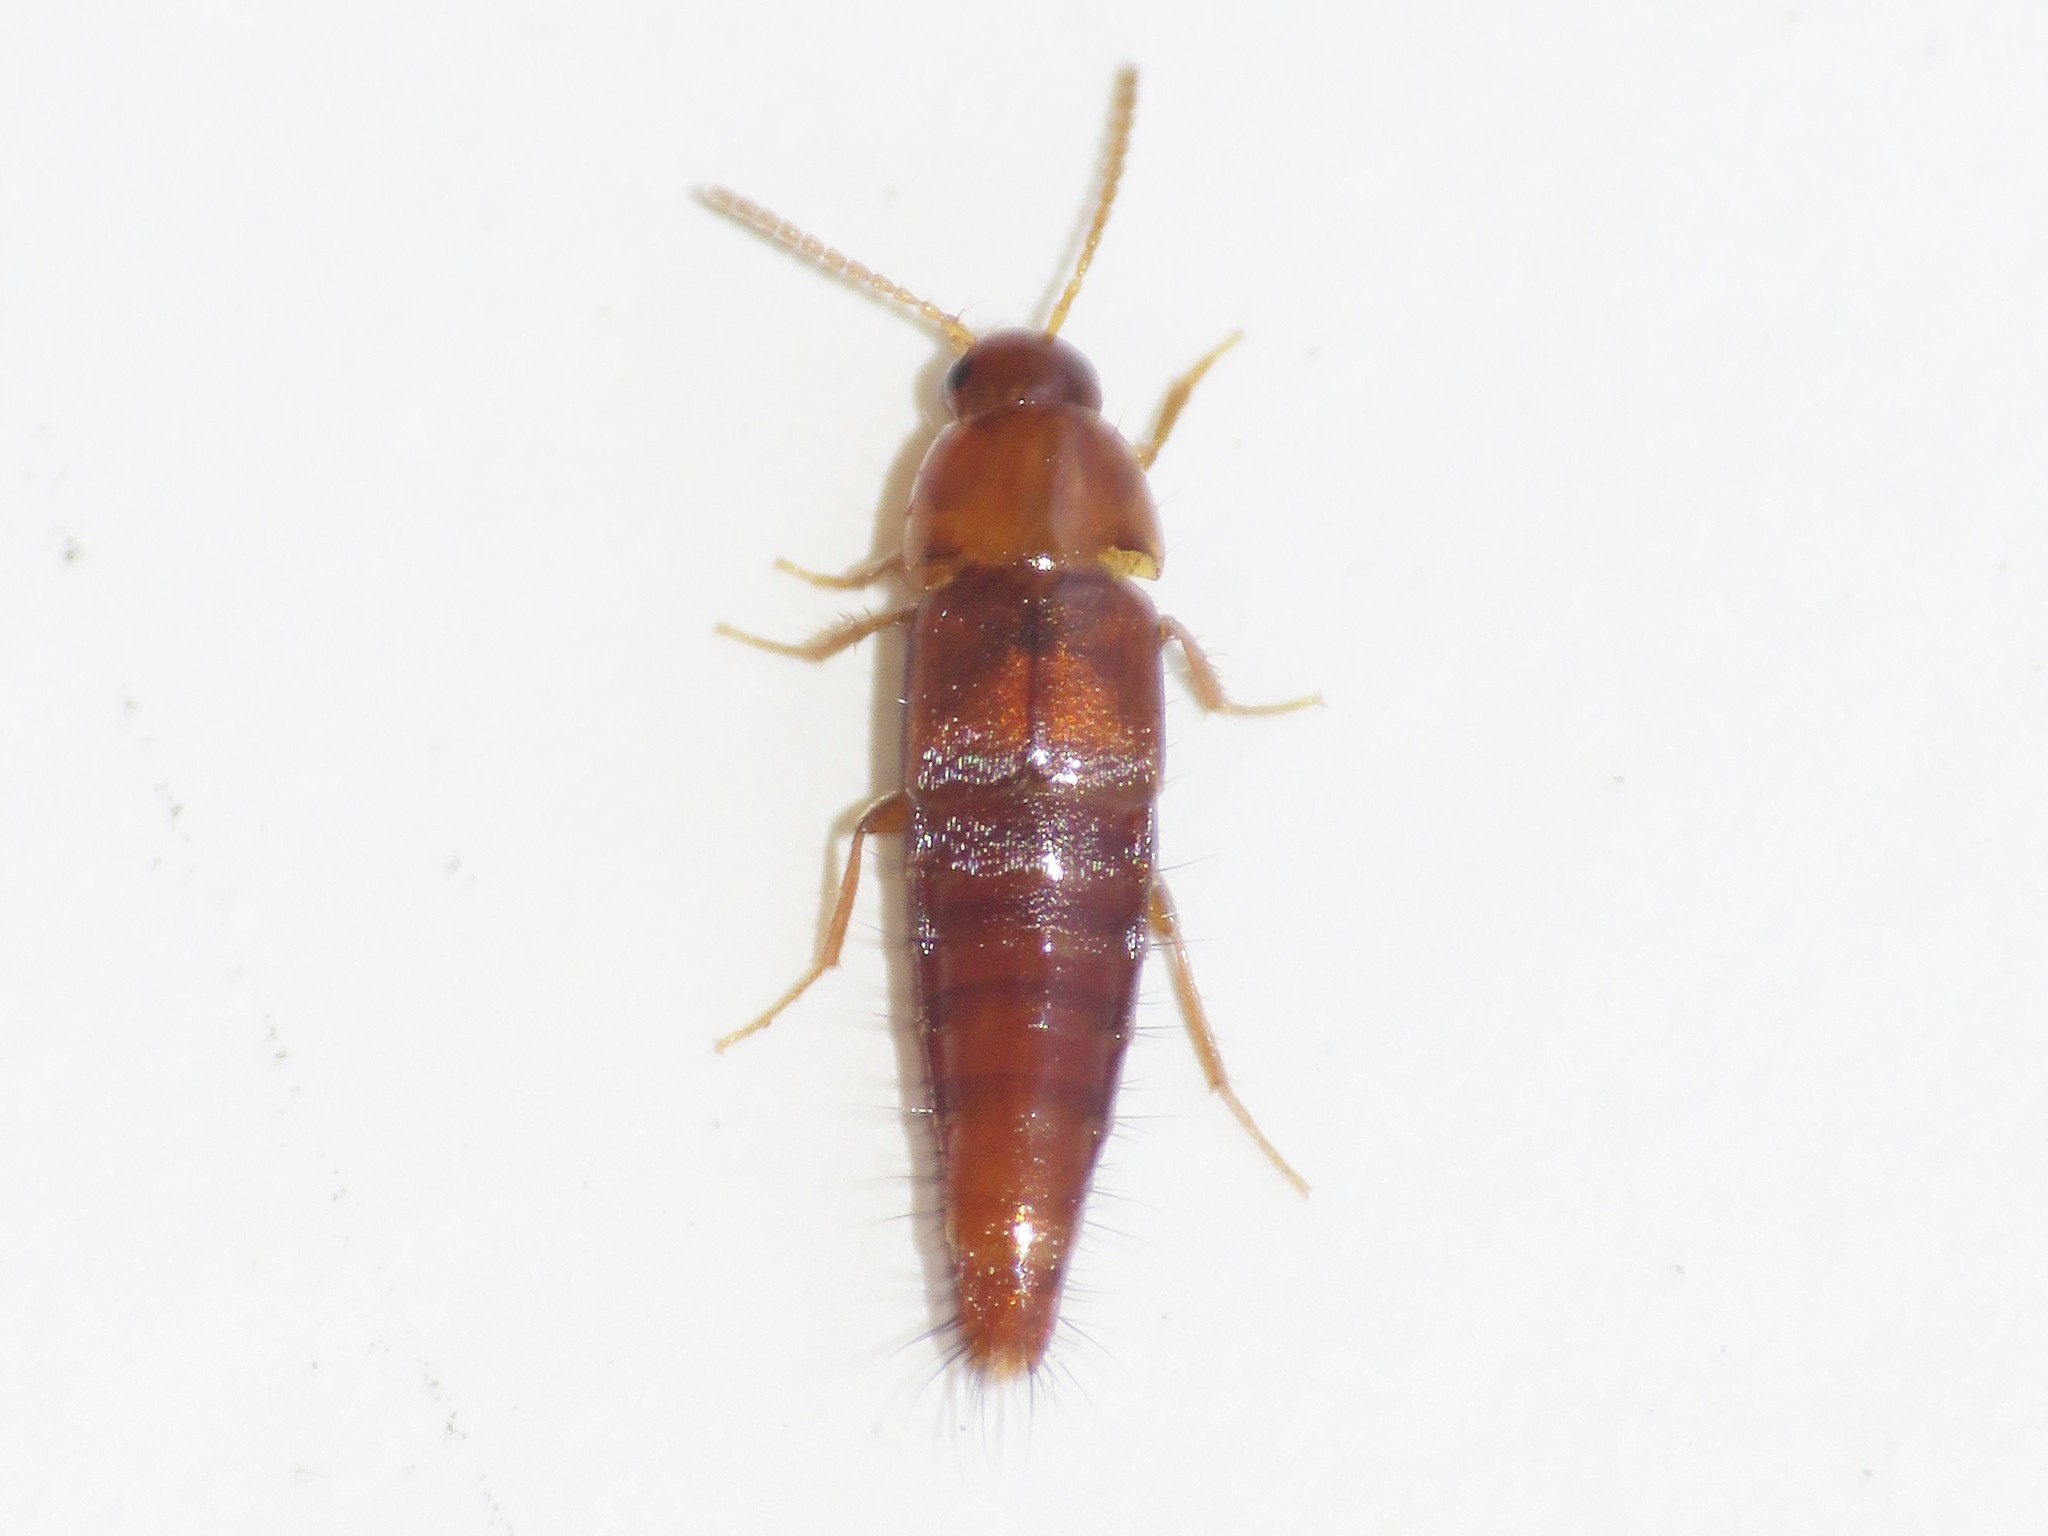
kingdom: Animalia
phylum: Arthropoda
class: Insecta
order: Coleoptera
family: Staphylinidae
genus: Palporus
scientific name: Palporus nitidulus
